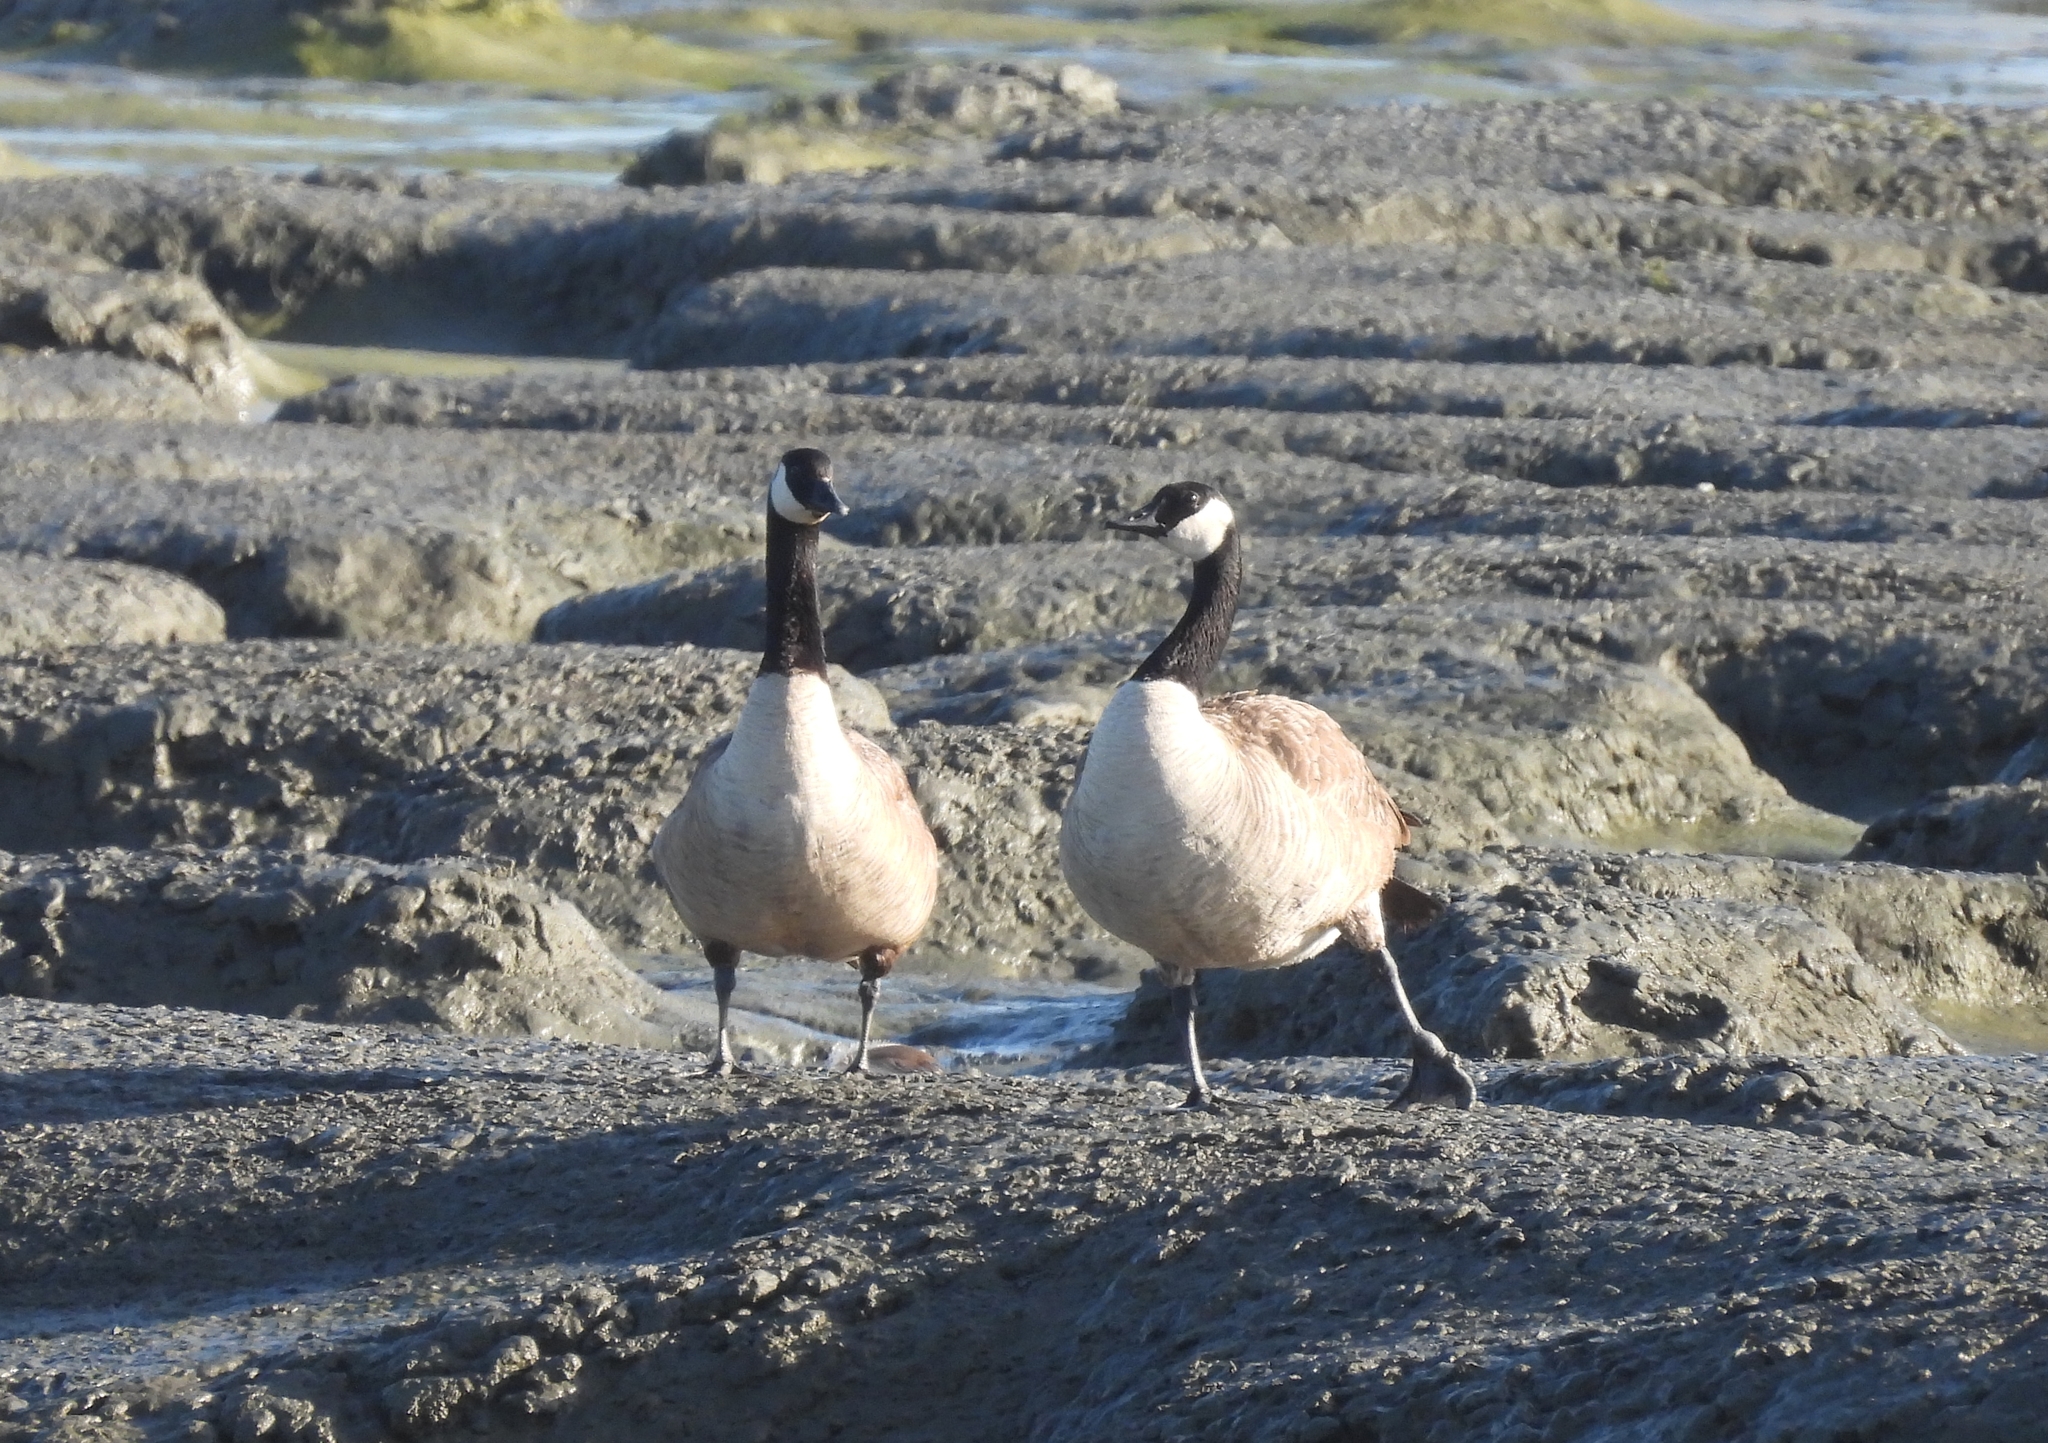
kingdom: Animalia
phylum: Chordata
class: Aves
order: Anseriformes
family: Anatidae
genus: Branta
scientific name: Branta canadensis
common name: Canada goose
